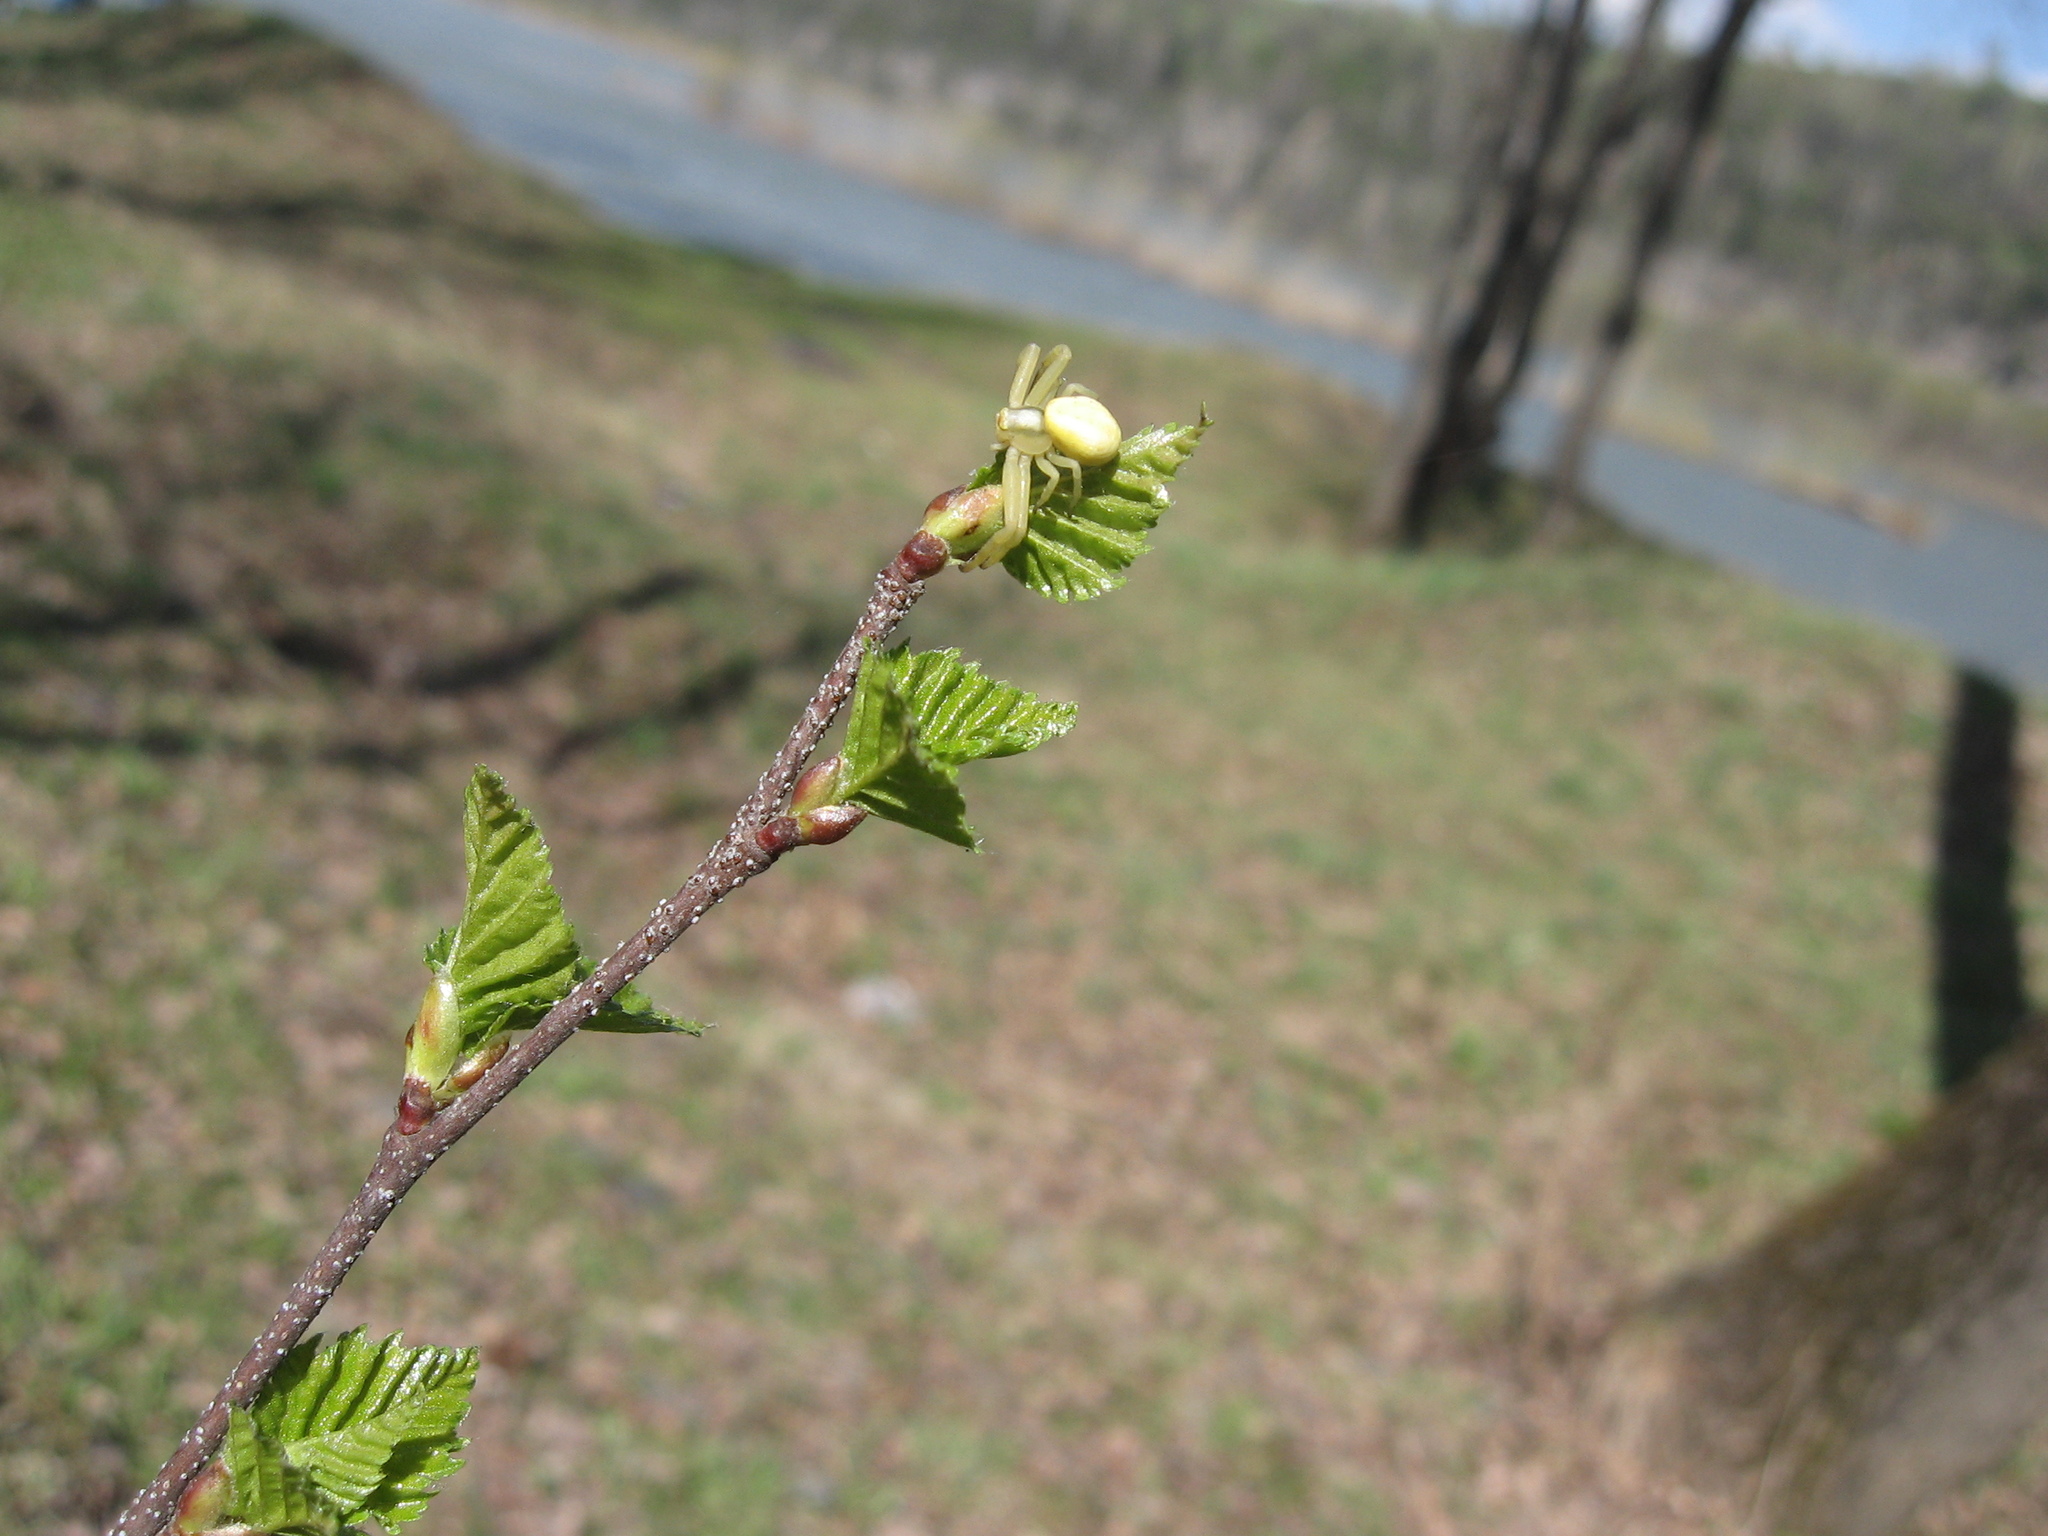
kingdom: Animalia
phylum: Arthropoda
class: Arachnida
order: Araneae
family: Thomisidae
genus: Misumena
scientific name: Misumena vatia
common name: Goldenrod crab spider
